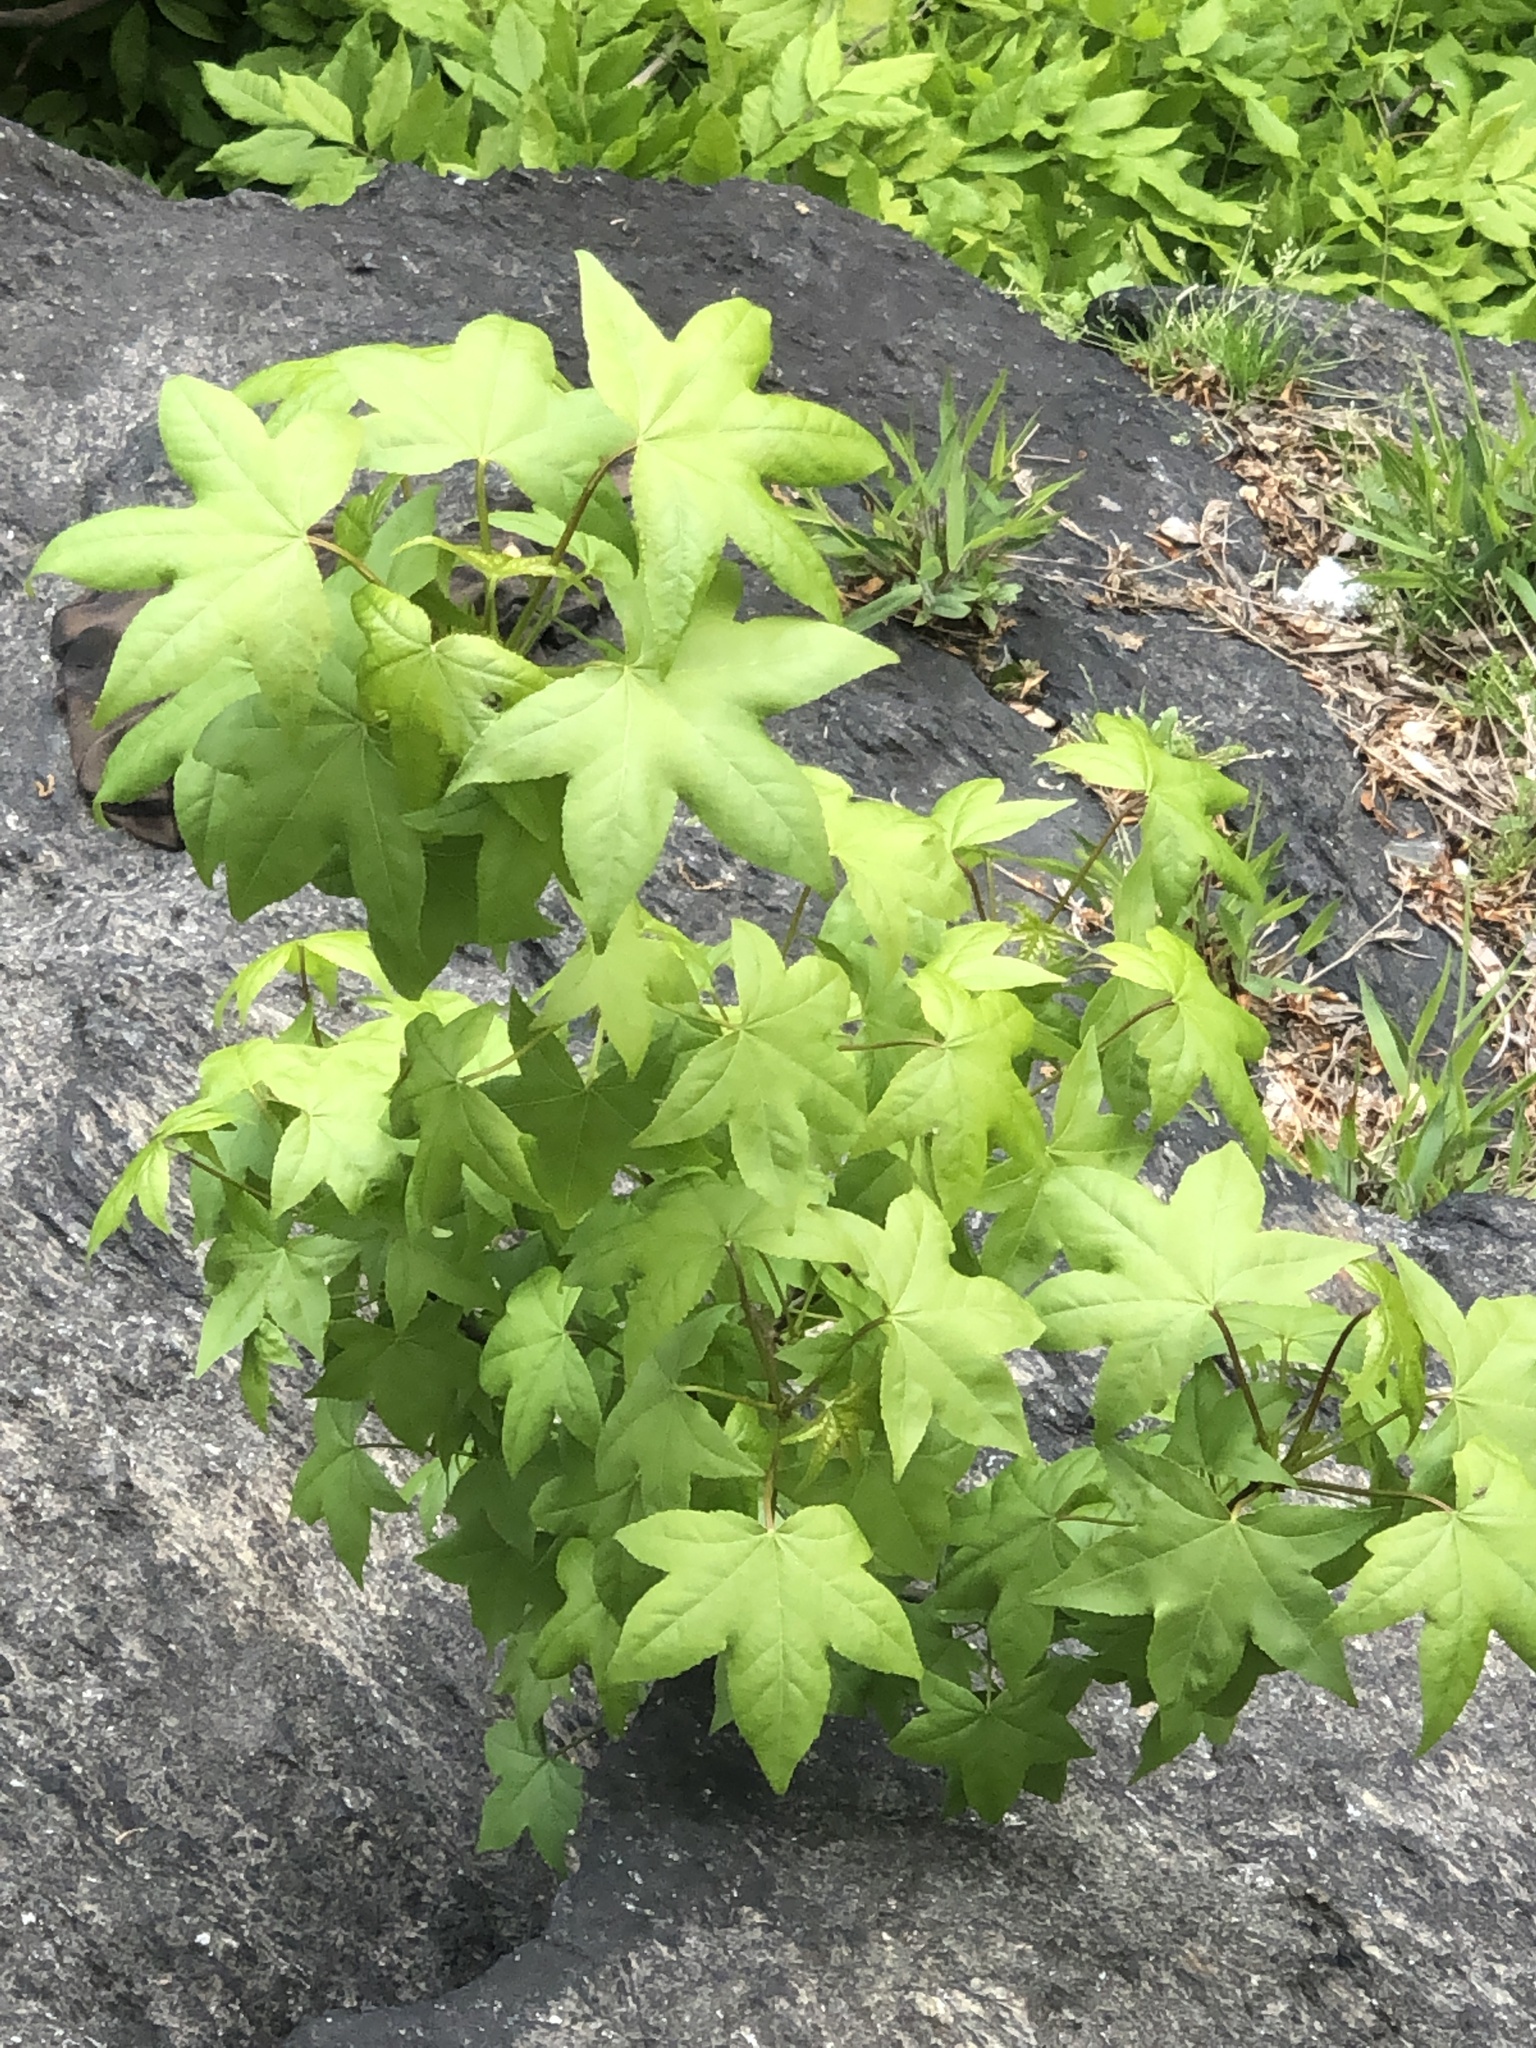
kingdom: Plantae
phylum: Tracheophyta
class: Magnoliopsida
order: Saxifragales
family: Altingiaceae
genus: Liquidambar
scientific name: Liquidambar styraciflua
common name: Sweet gum
